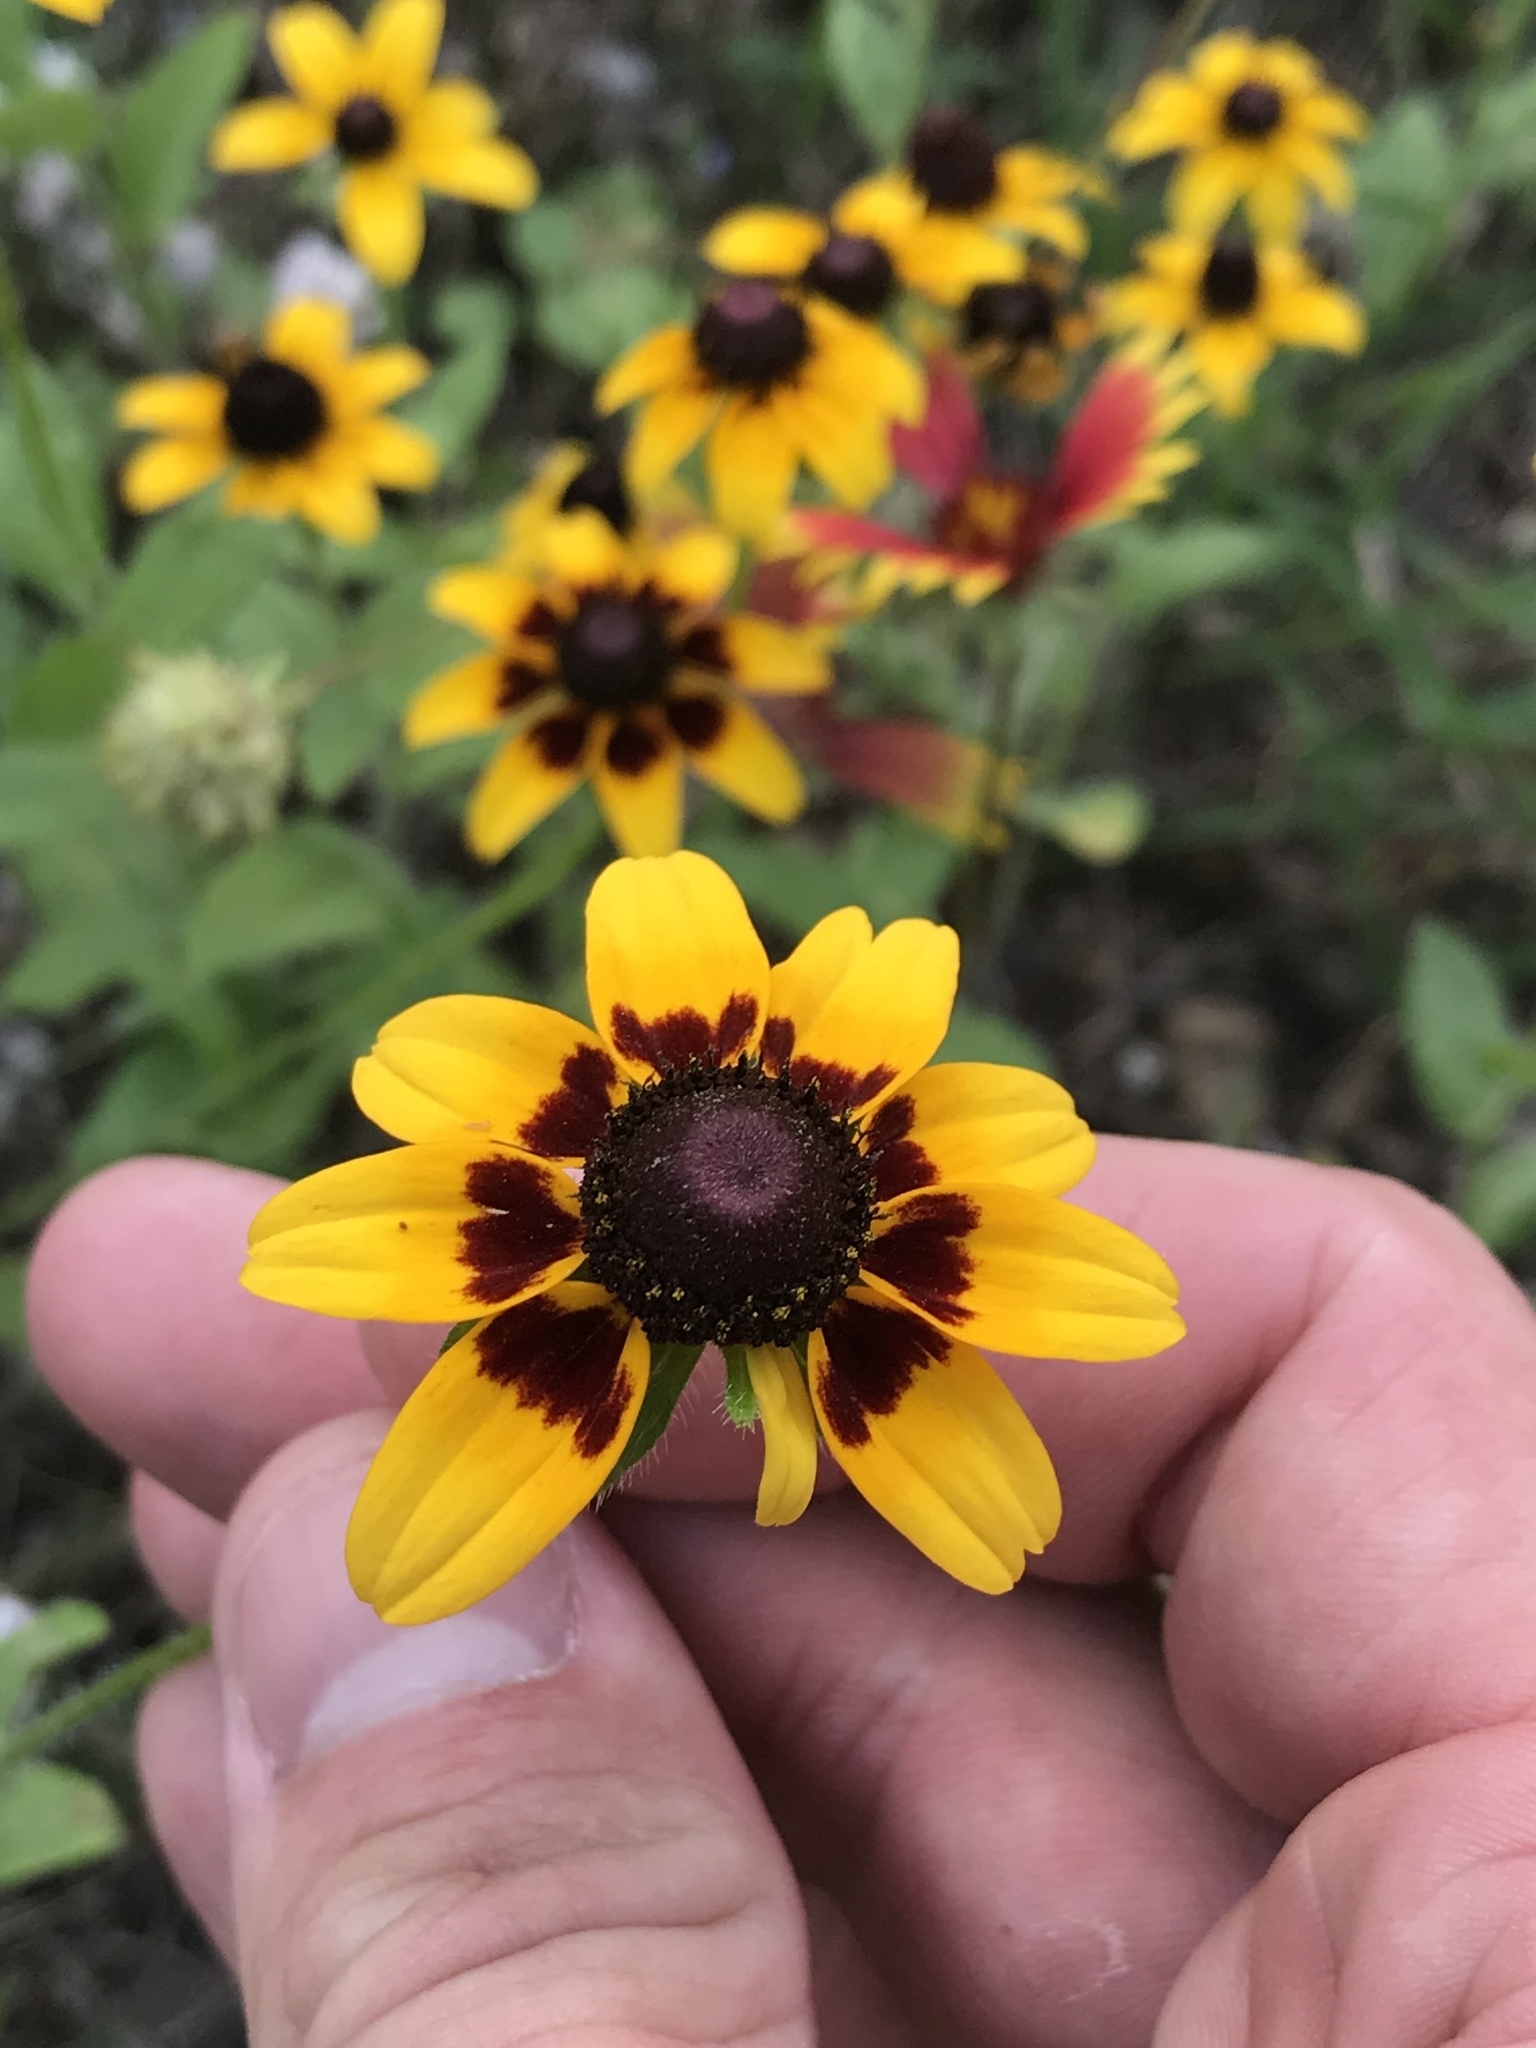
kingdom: Plantae
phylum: Tracheophyta
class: Magnoliopsida
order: Asterales
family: Asteraceae
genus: Rudbeckia
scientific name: Rudbeckia hirta
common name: Black-eyed-susan
